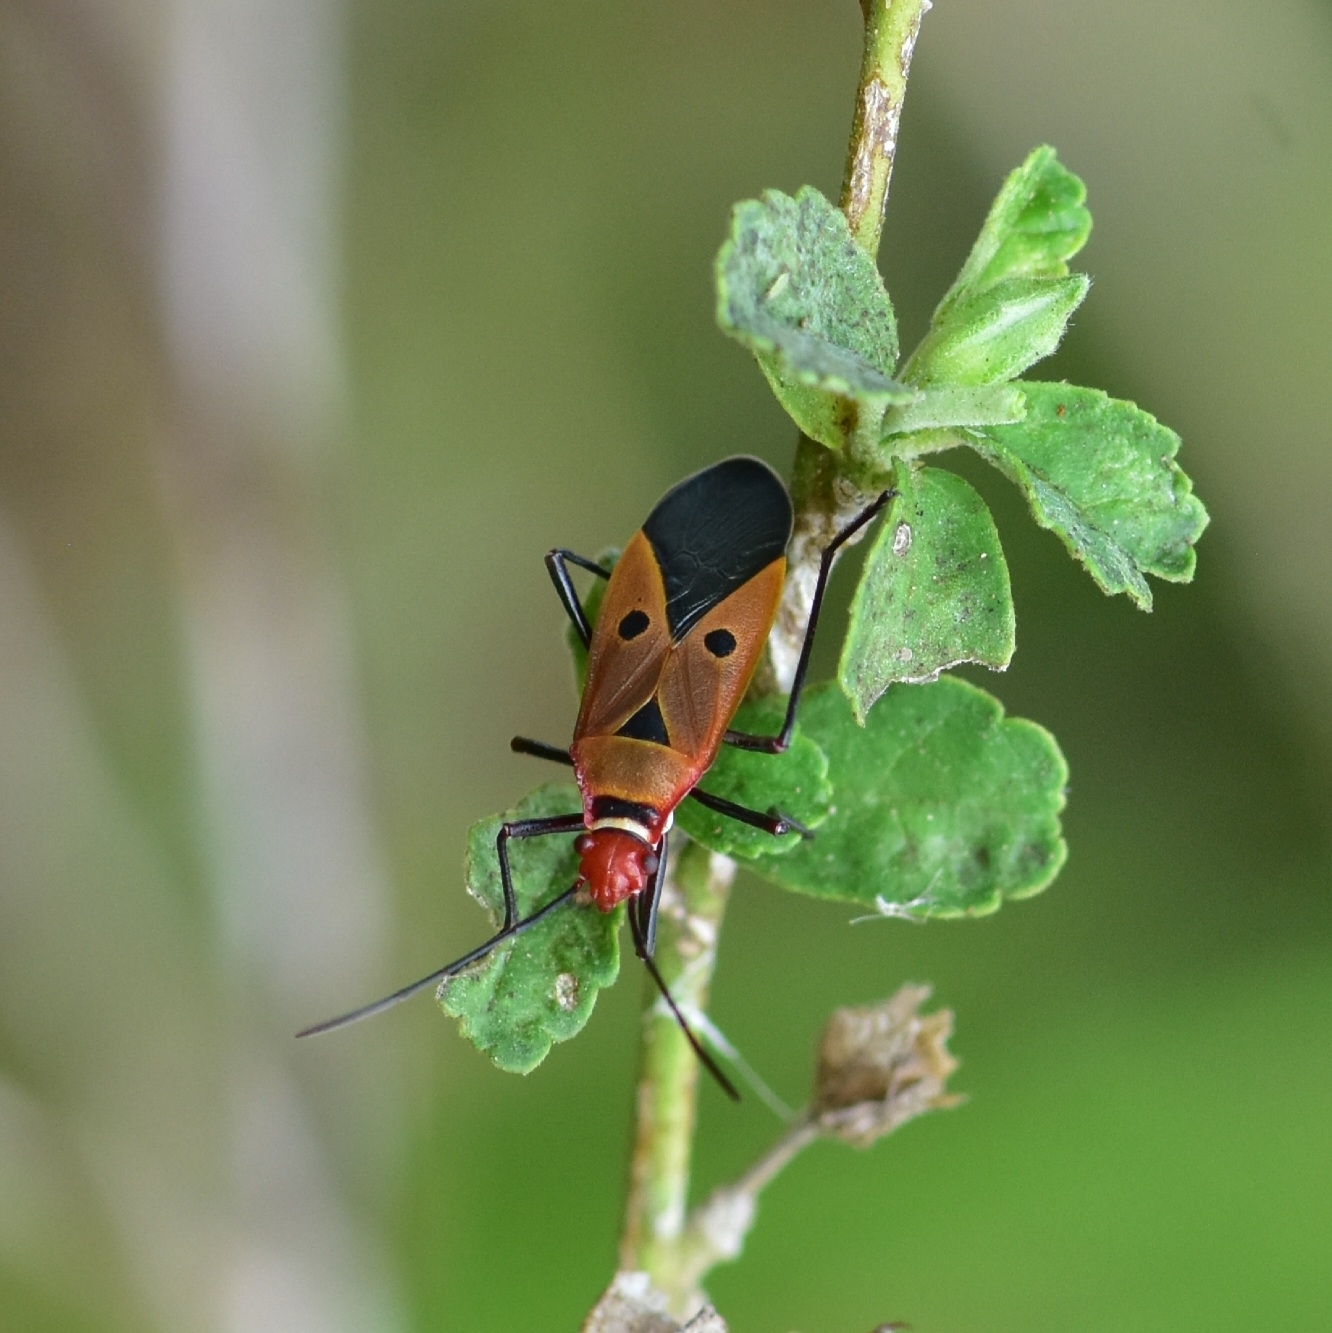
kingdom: Animalia
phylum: Arthropoda
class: Insecta
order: Hemiptera
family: Pyrrhocoridae
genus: Dysdercus
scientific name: Dysdercus cingulatus
